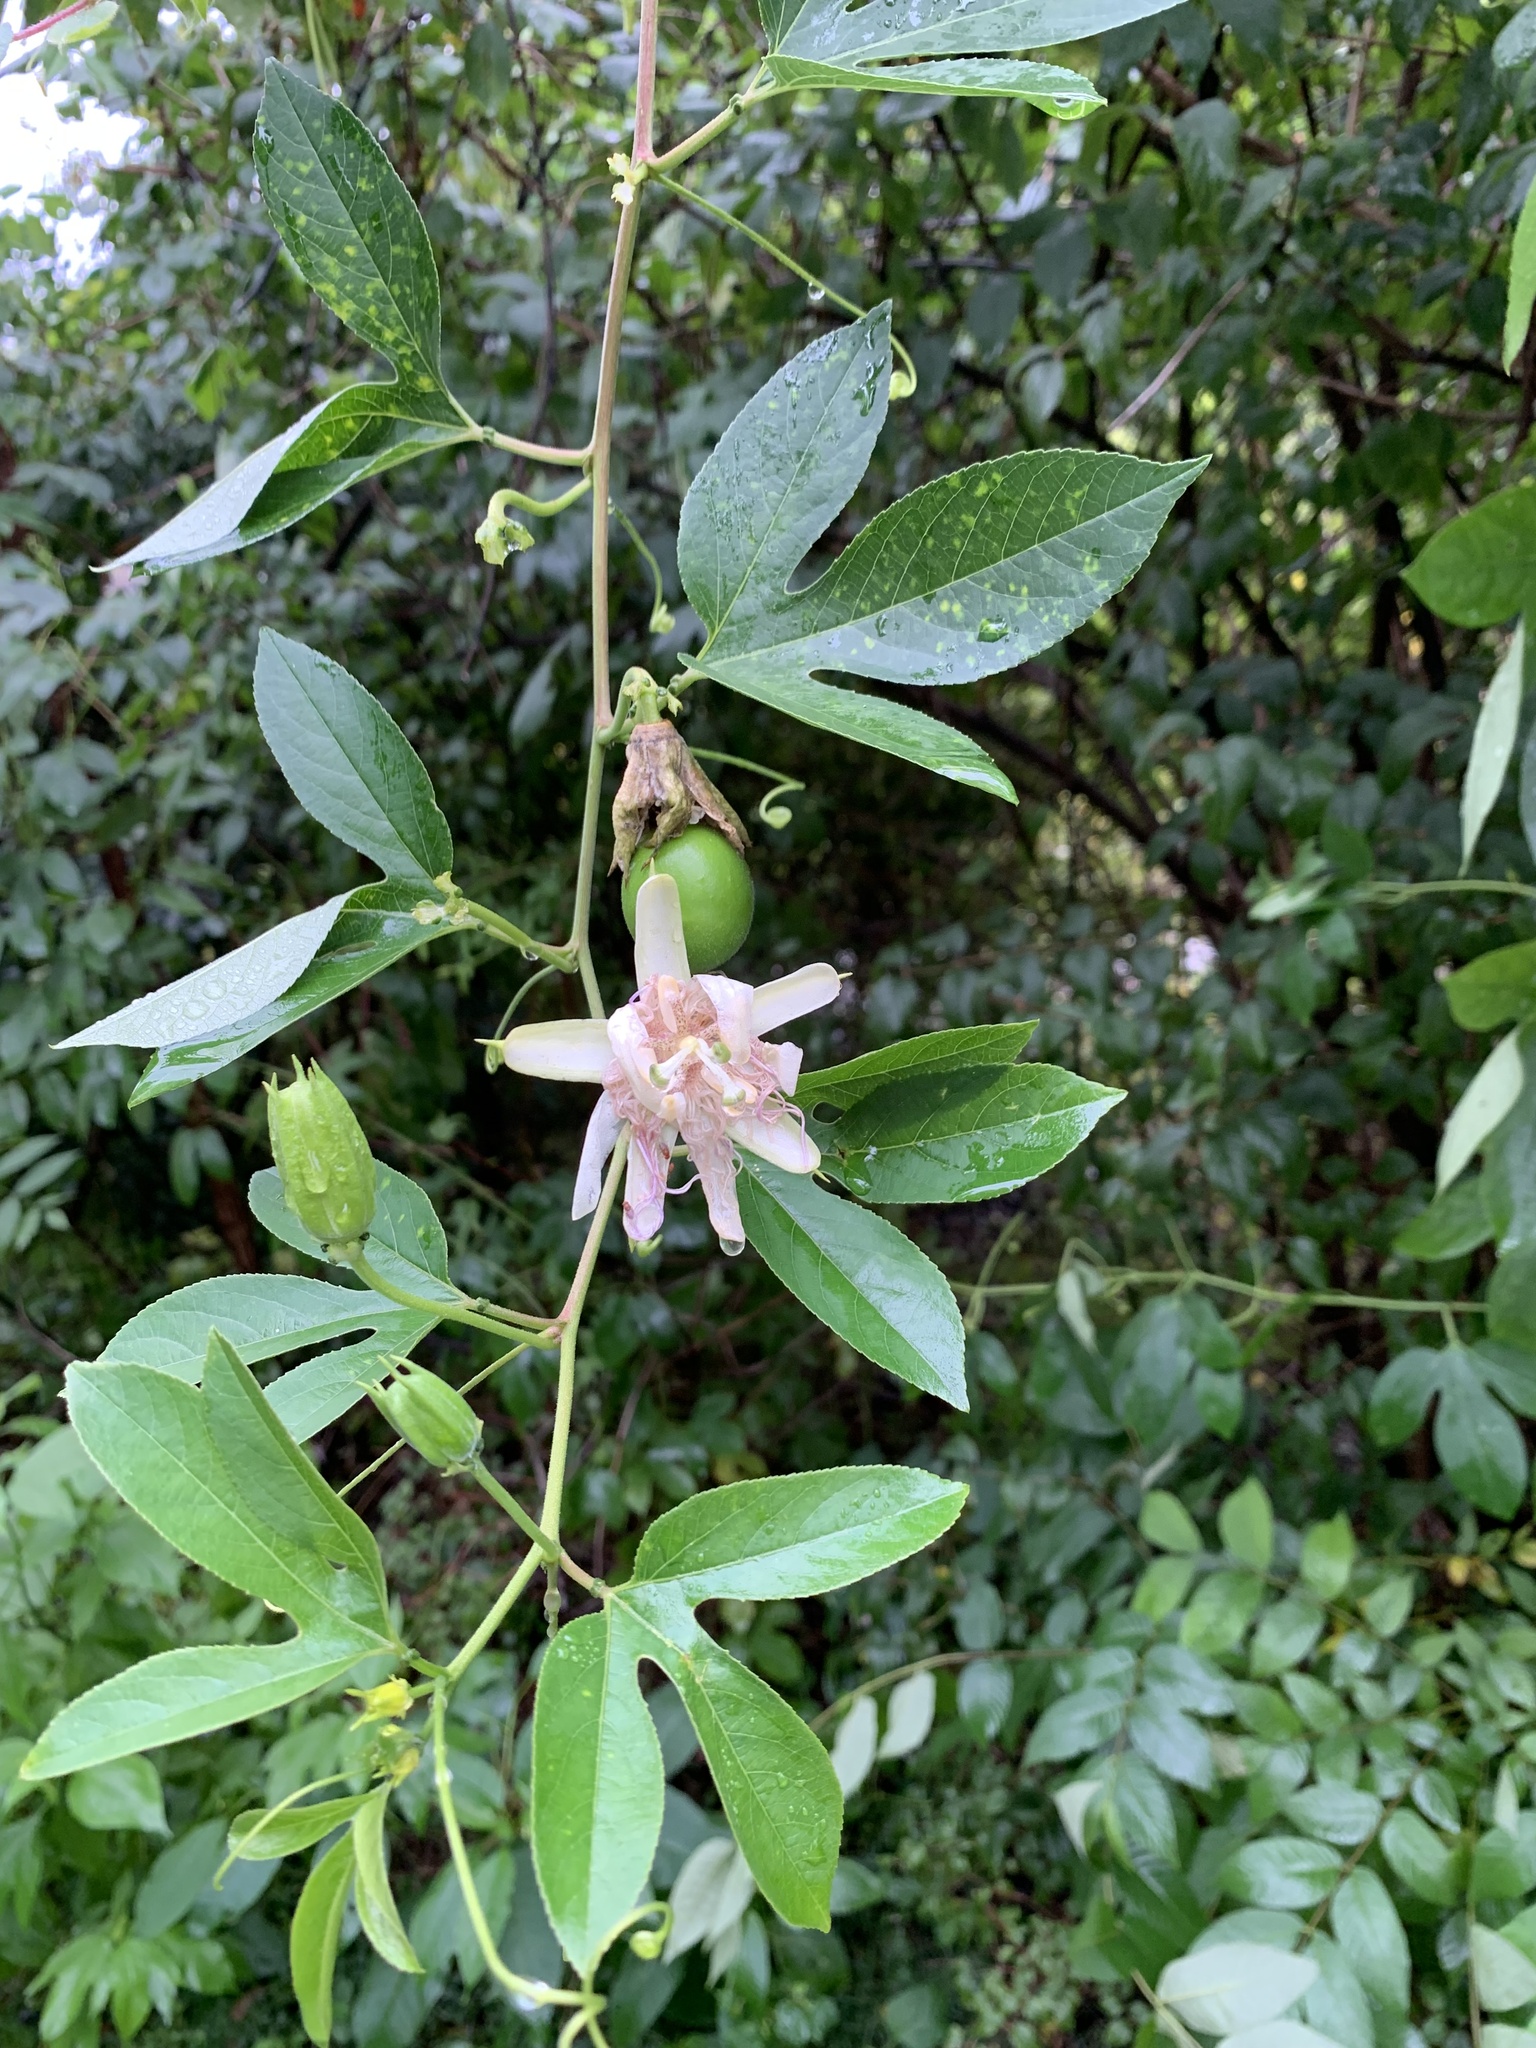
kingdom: Plantae
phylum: Tracheophyta
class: Magnoliopsida
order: Malpighiales
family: Passifloraceae
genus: Passiflora
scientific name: Passiflora incarnata
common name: Apricot-vine
